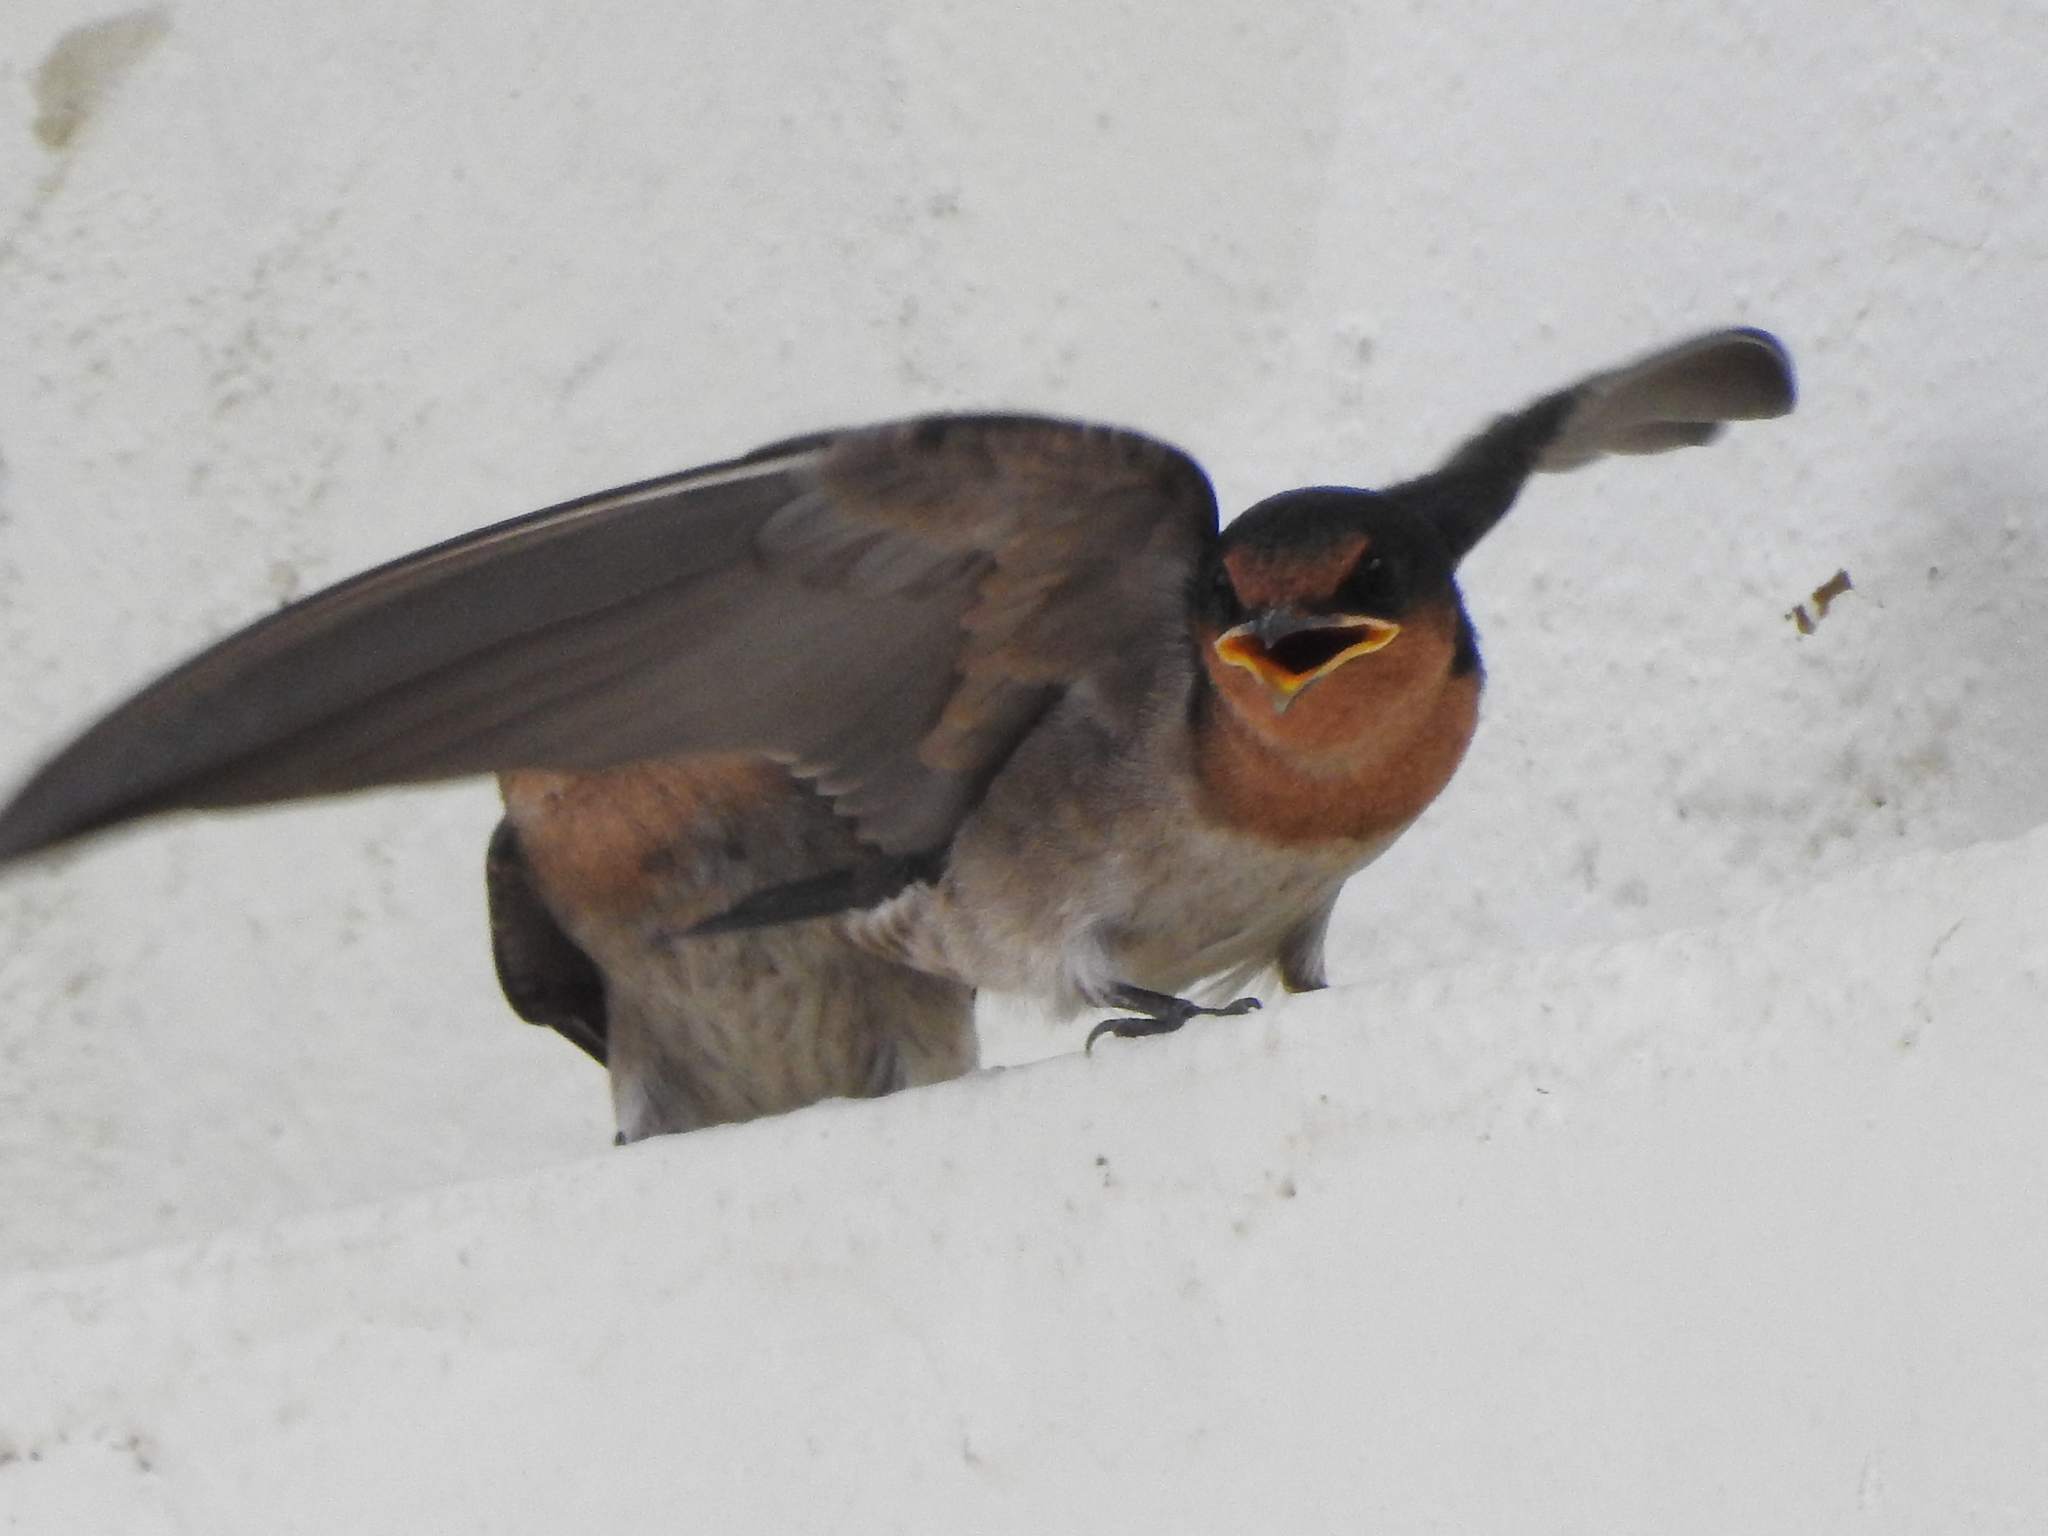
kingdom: Animalia
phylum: Chordata
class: Aves
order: Passeriformes
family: Hirundinidae
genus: Hirundo
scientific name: Hirundo tahitica
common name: Pacific swallow
